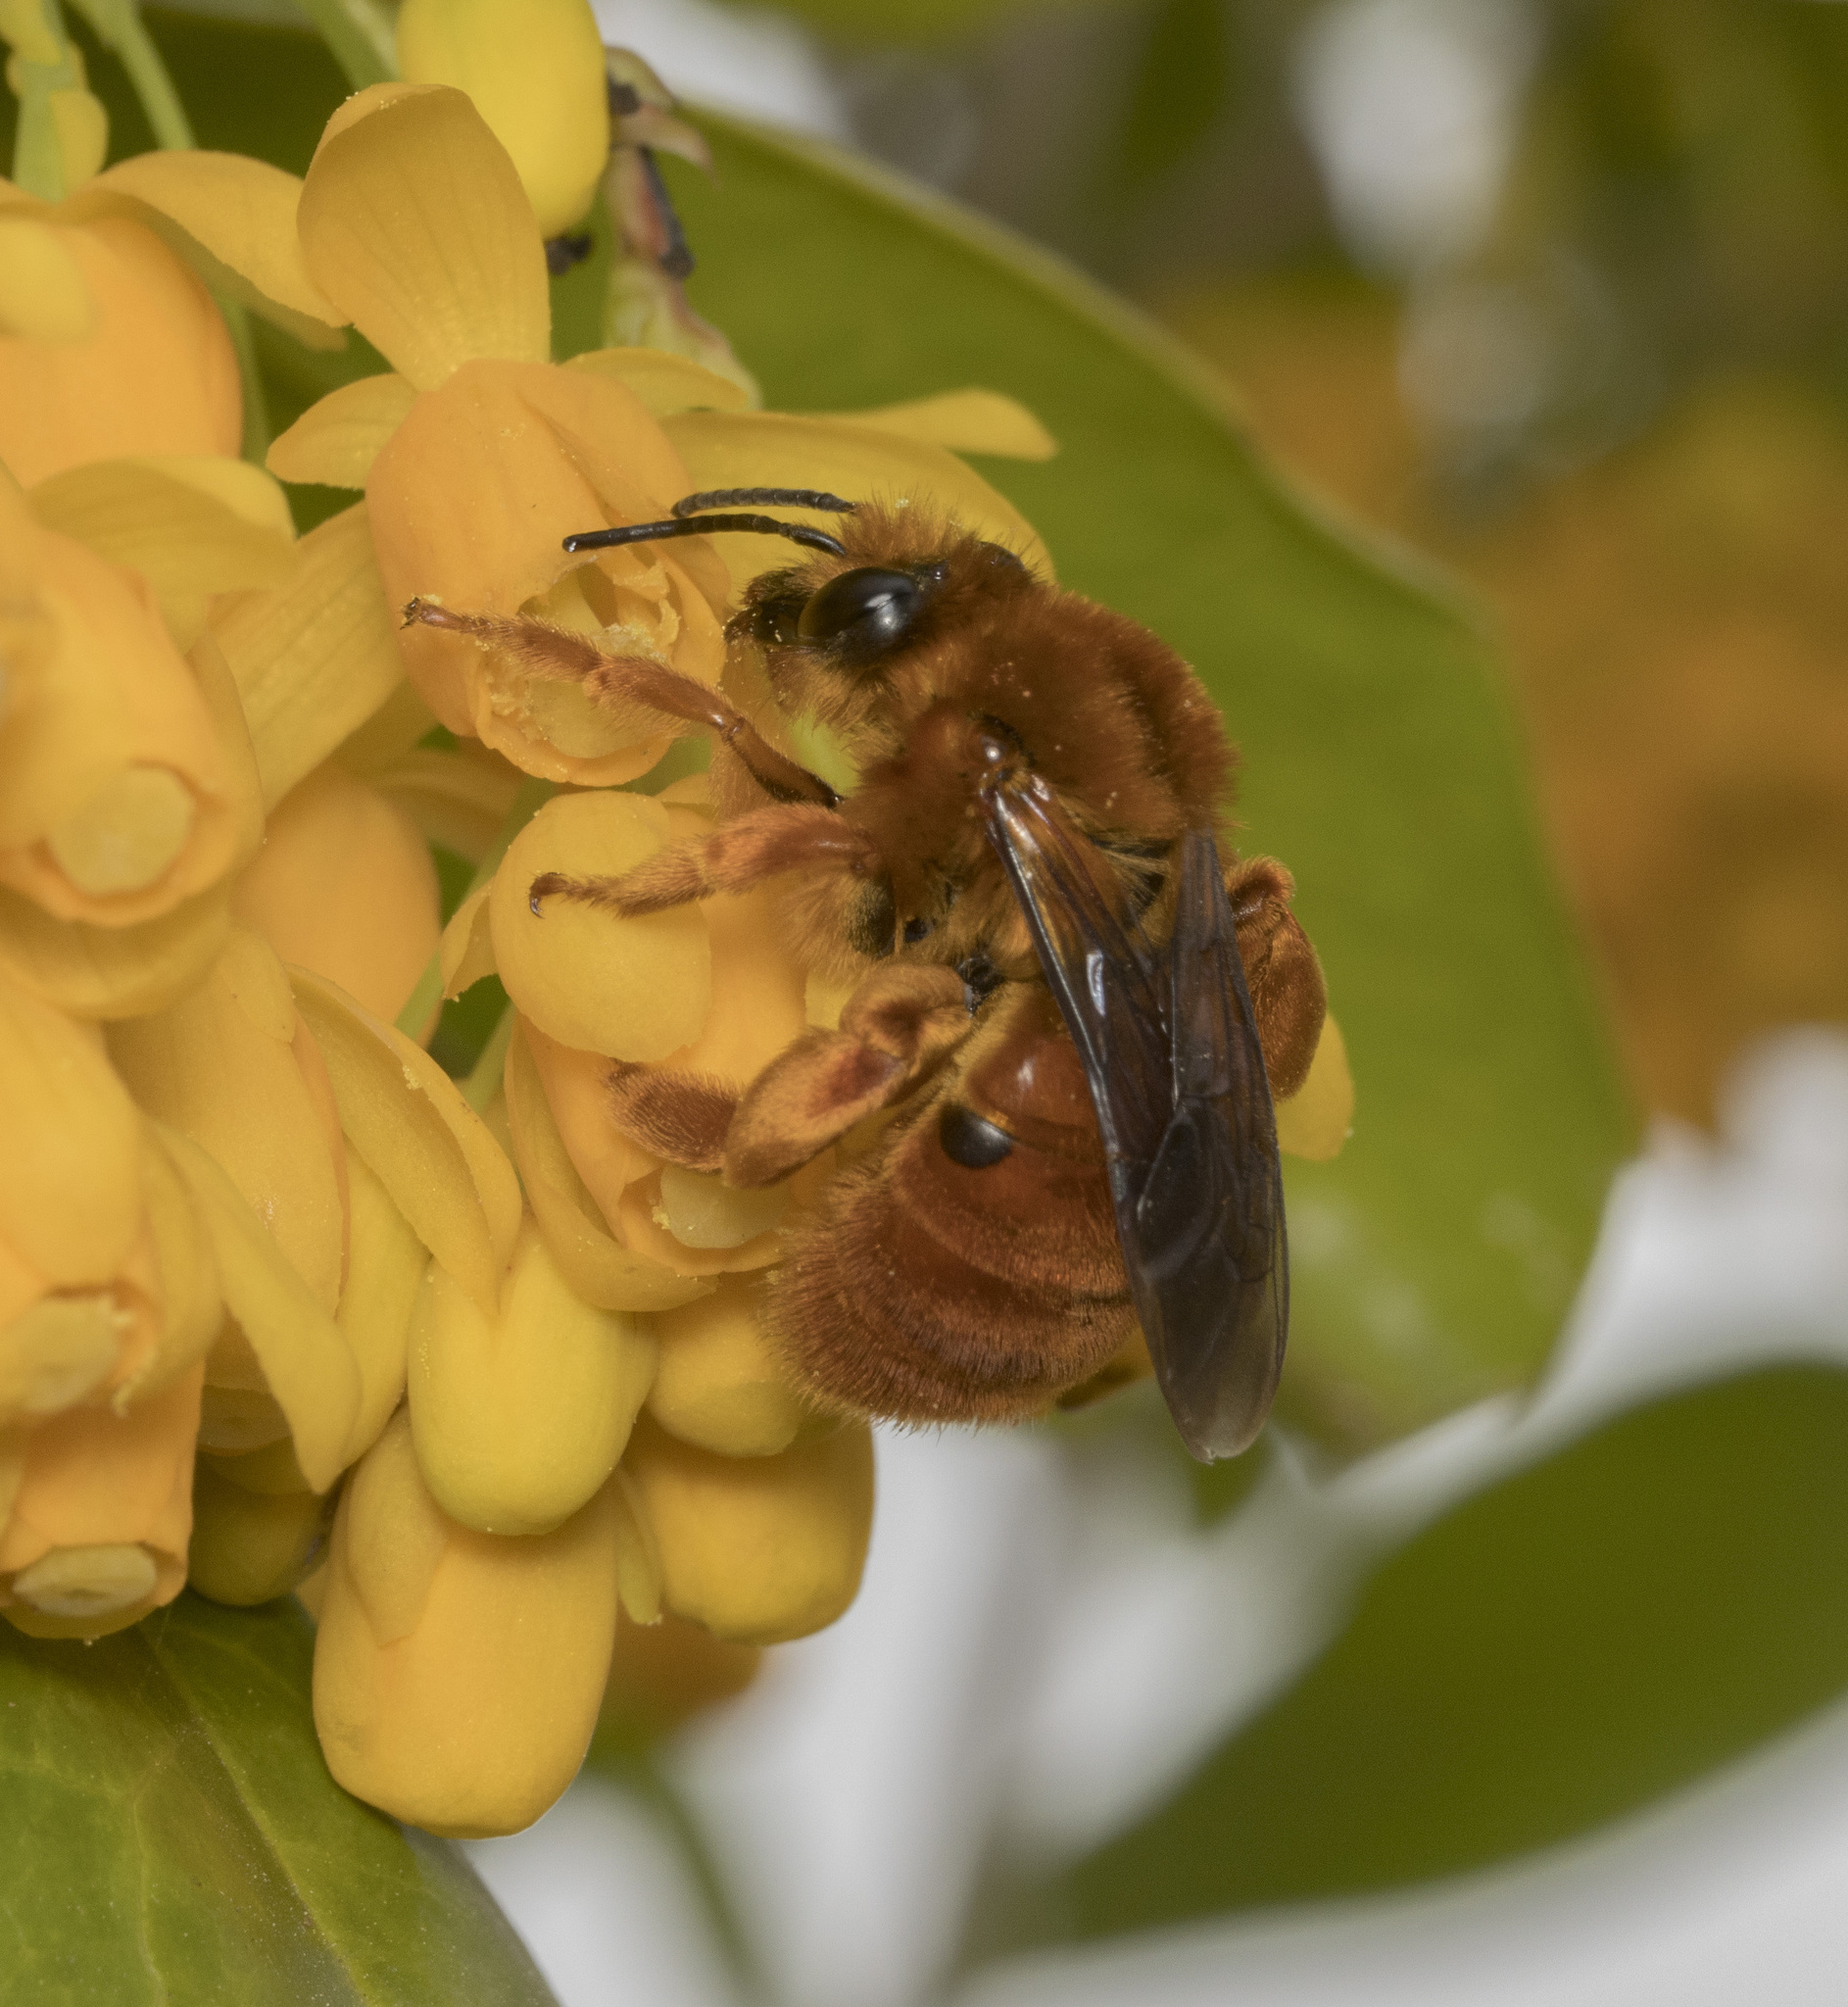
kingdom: Animalia
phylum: Arthropoda
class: Insecta
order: Hymenoptera
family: Colletidae
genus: Diphaglossa
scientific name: Diphaglossa gayi
